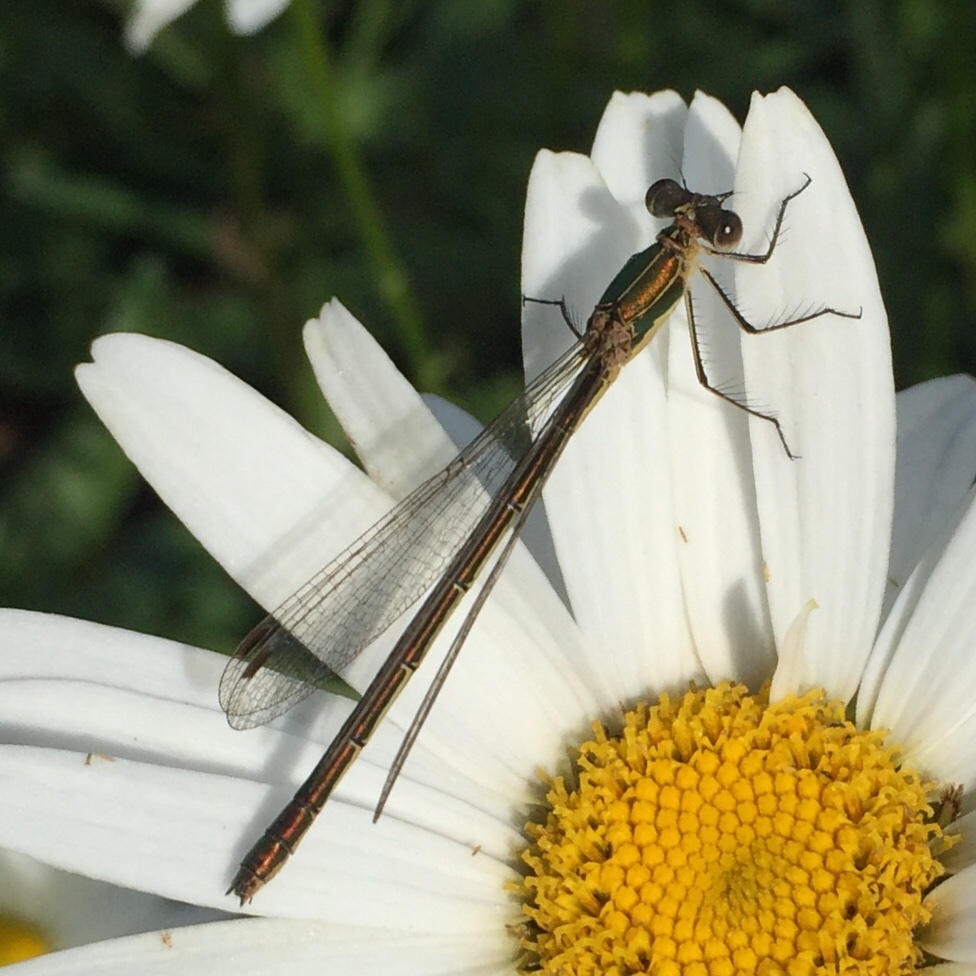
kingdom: Animalia
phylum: Arthropoda
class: Insecta
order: Odonata
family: Lestidae
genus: Lestes
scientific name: Lestes sponsa
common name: Common spreadwing
